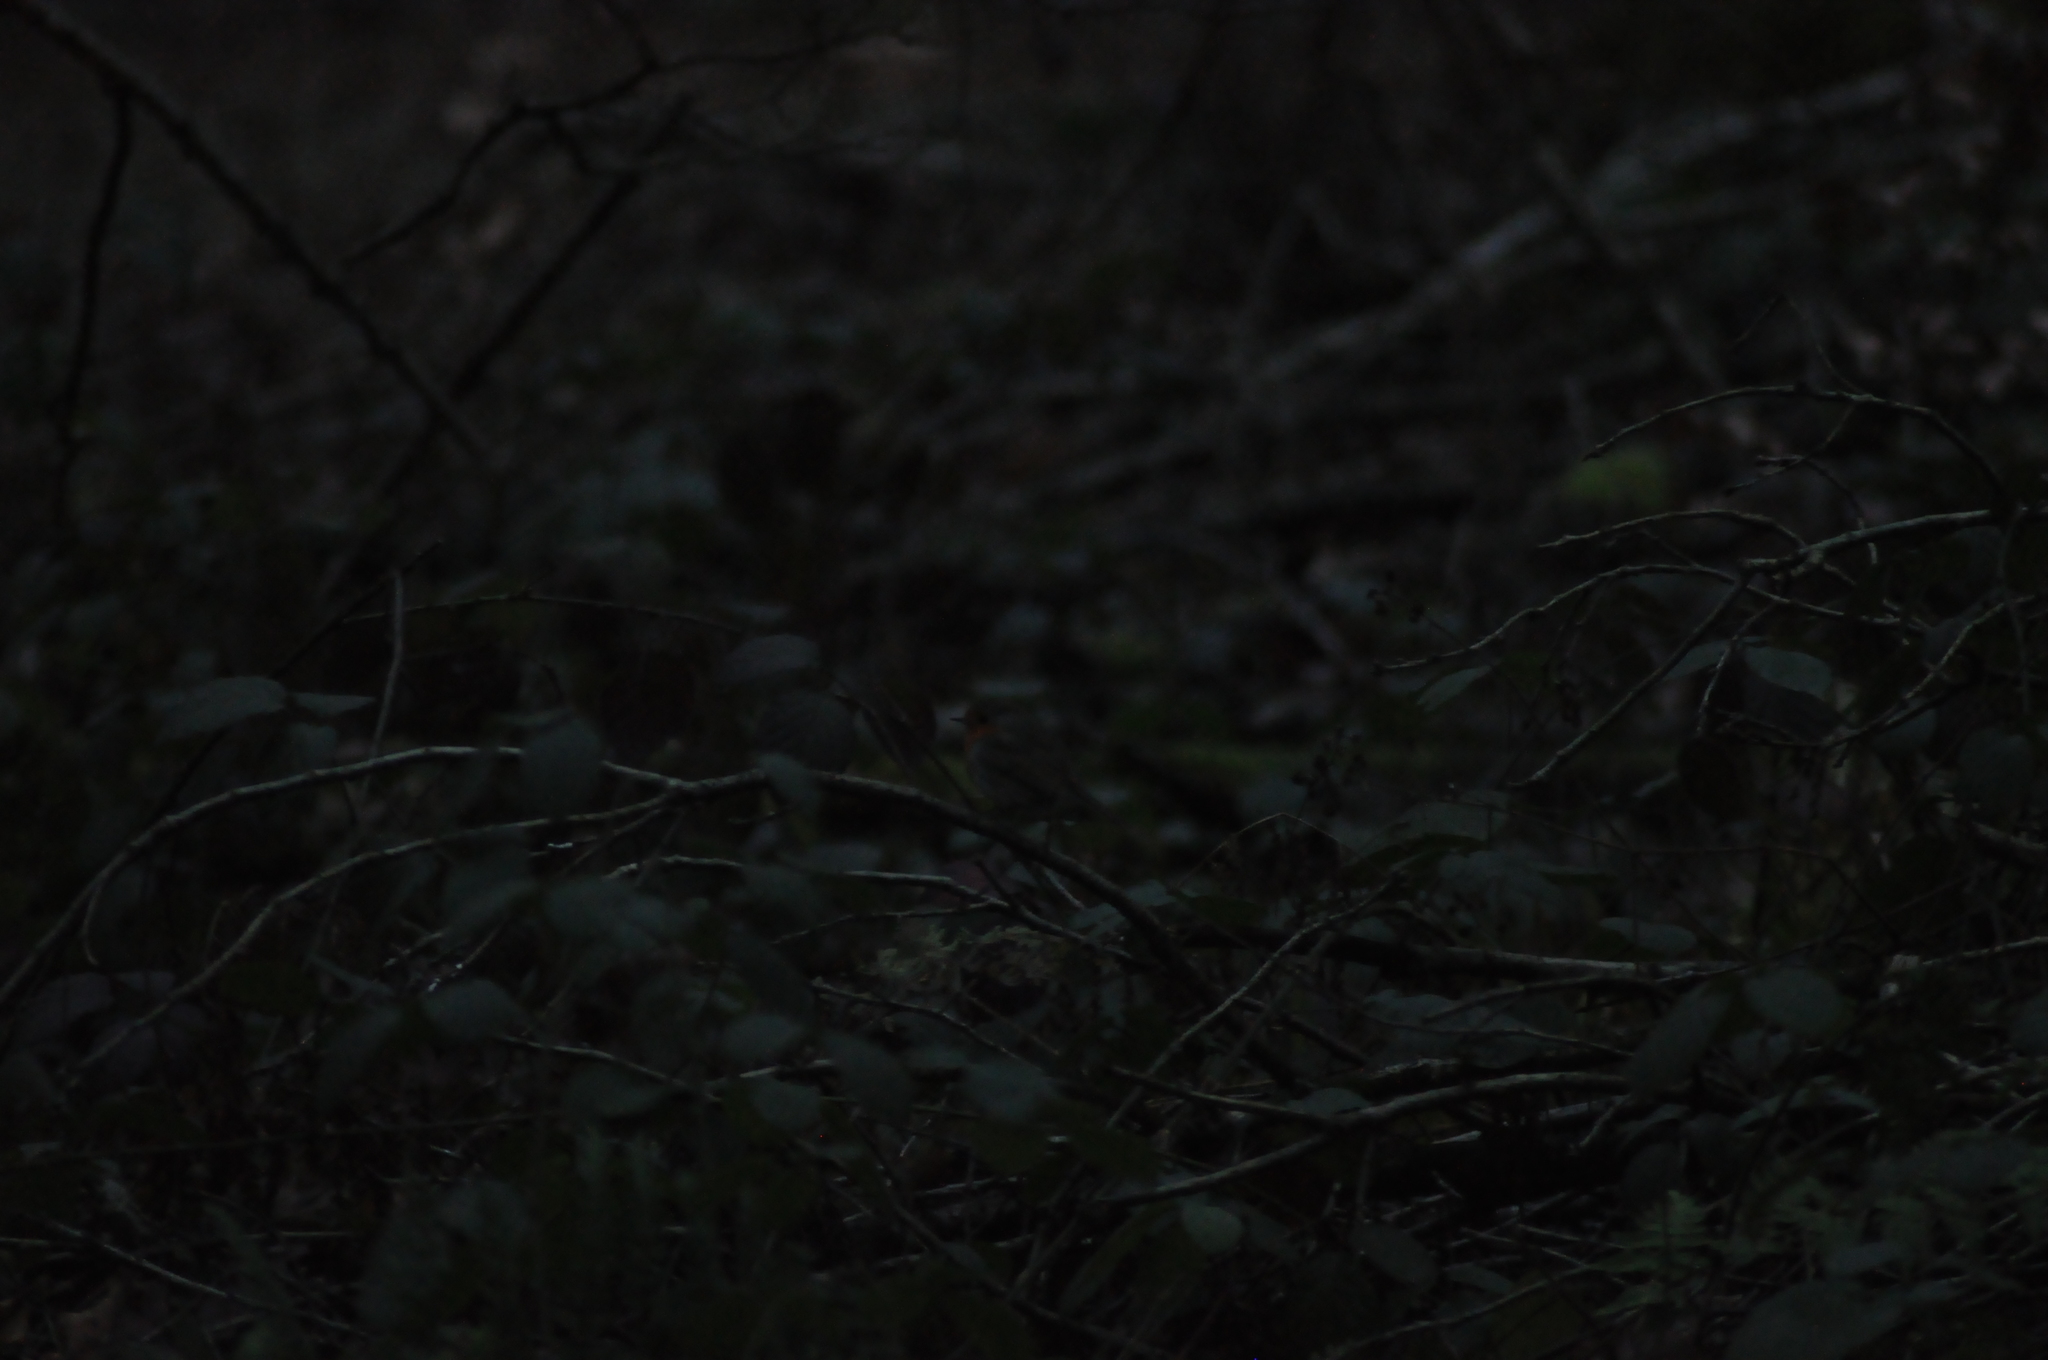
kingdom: Animalia
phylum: Chordata
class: Aves
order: Passeriformes
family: Muscicapidae
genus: Erithacus
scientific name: Erithacus rubecula
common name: European robin
